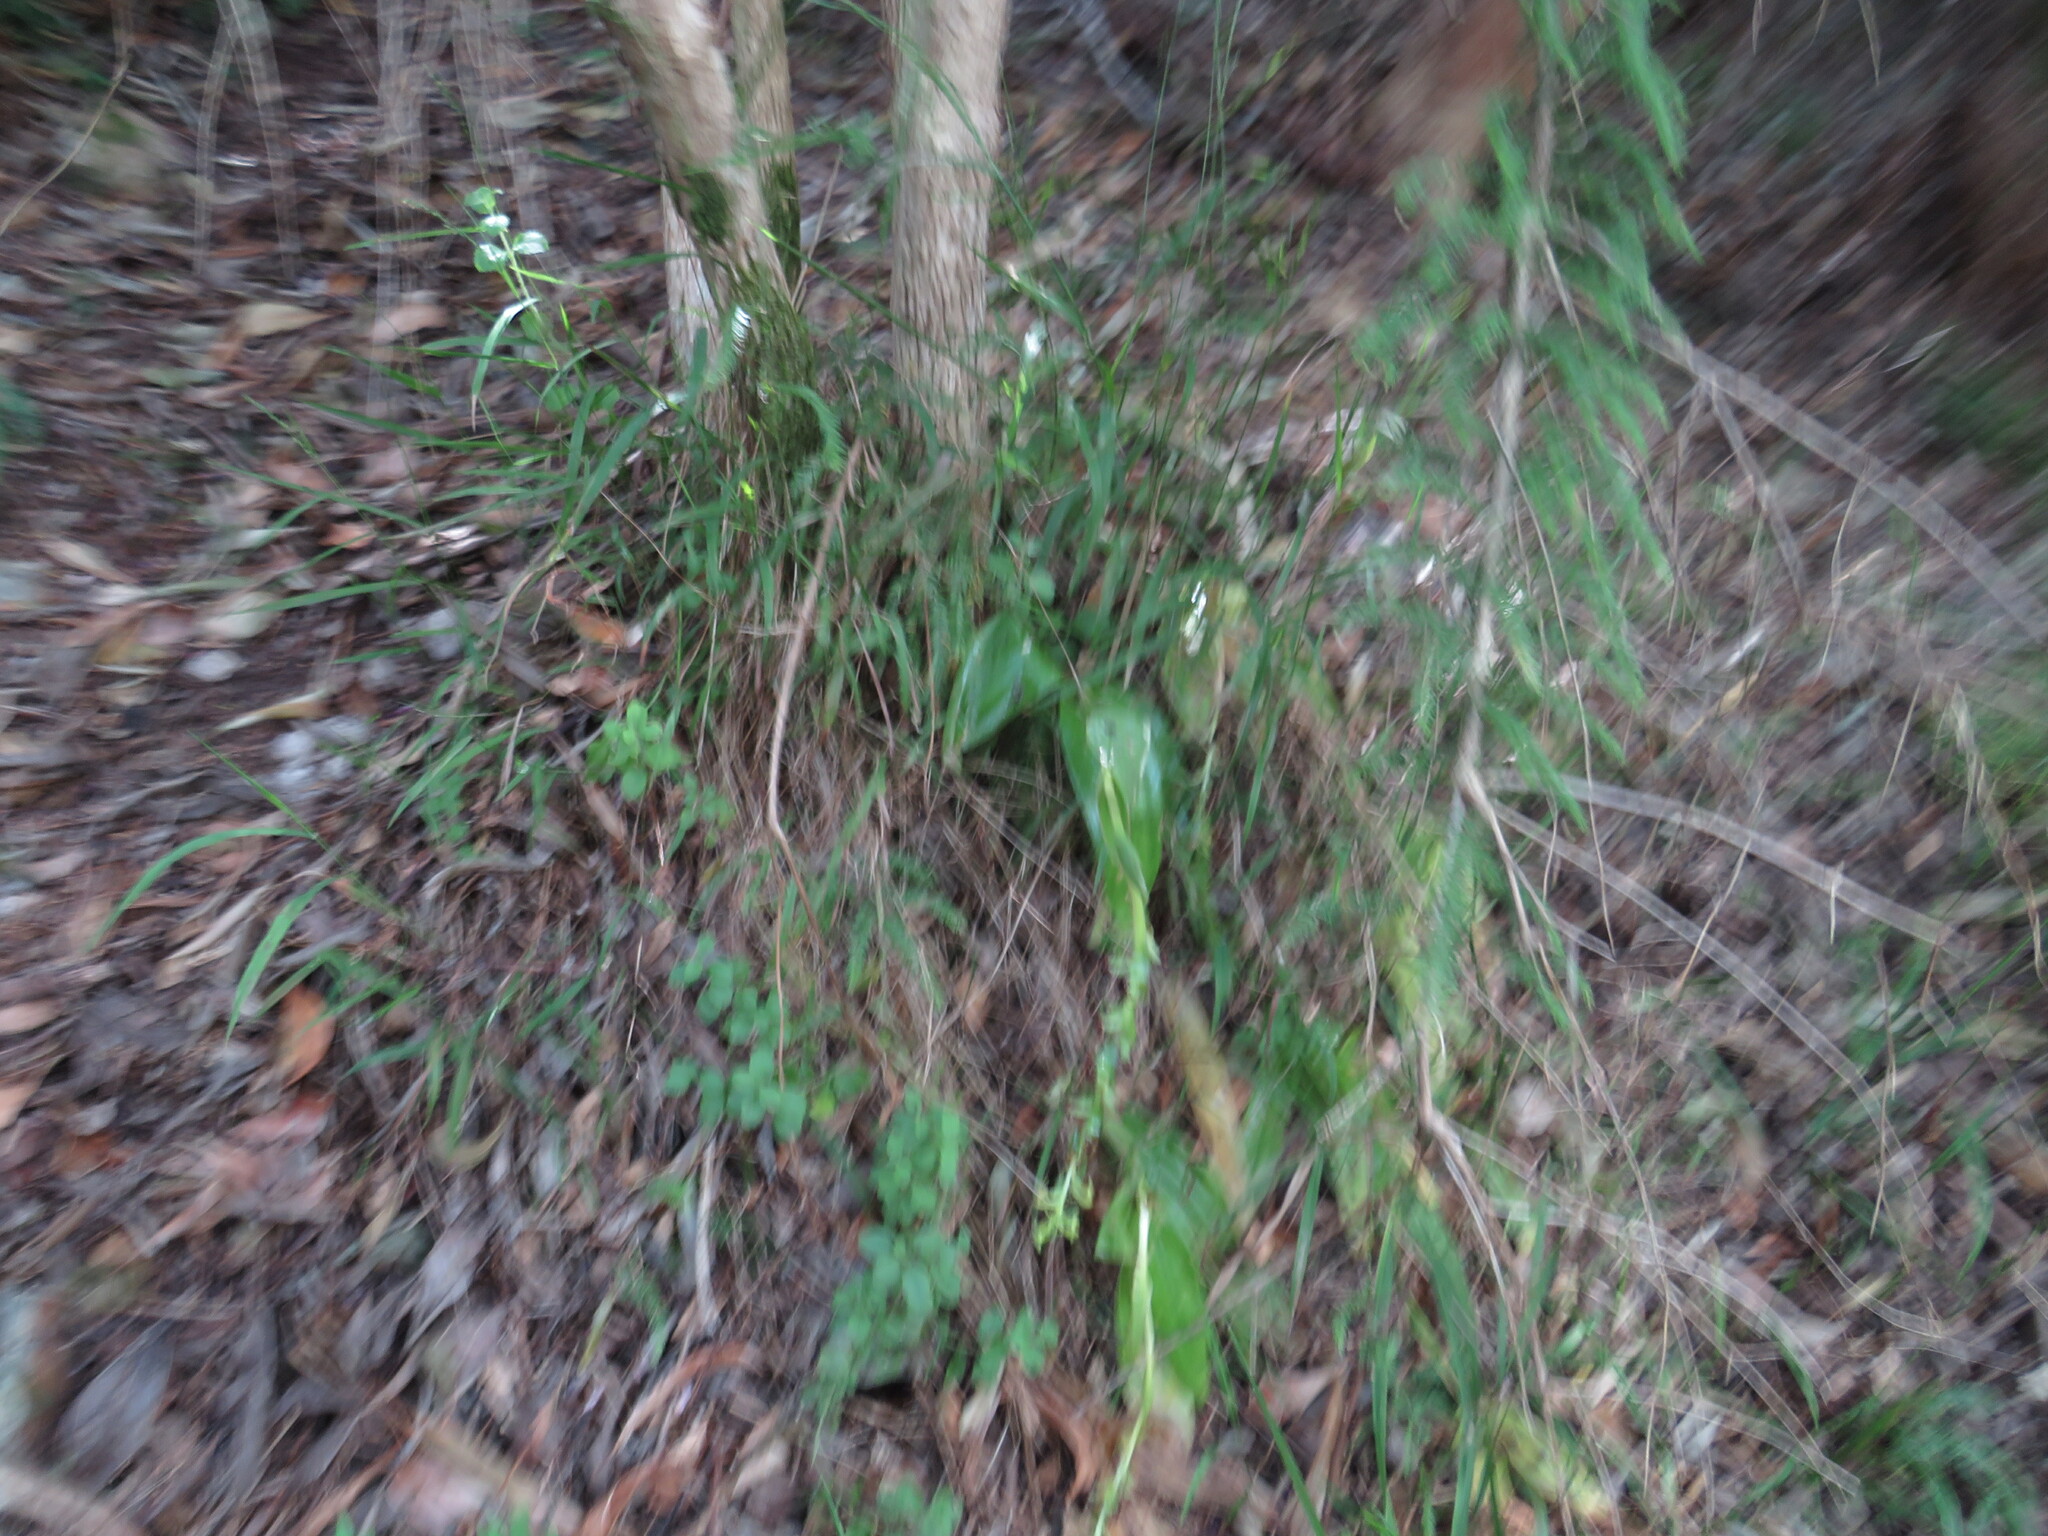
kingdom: Plantae
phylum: Tracheophyta
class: Liliopsida
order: Asparagales
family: Orchidaceae
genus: Satyrium
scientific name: Satyrium odorum
